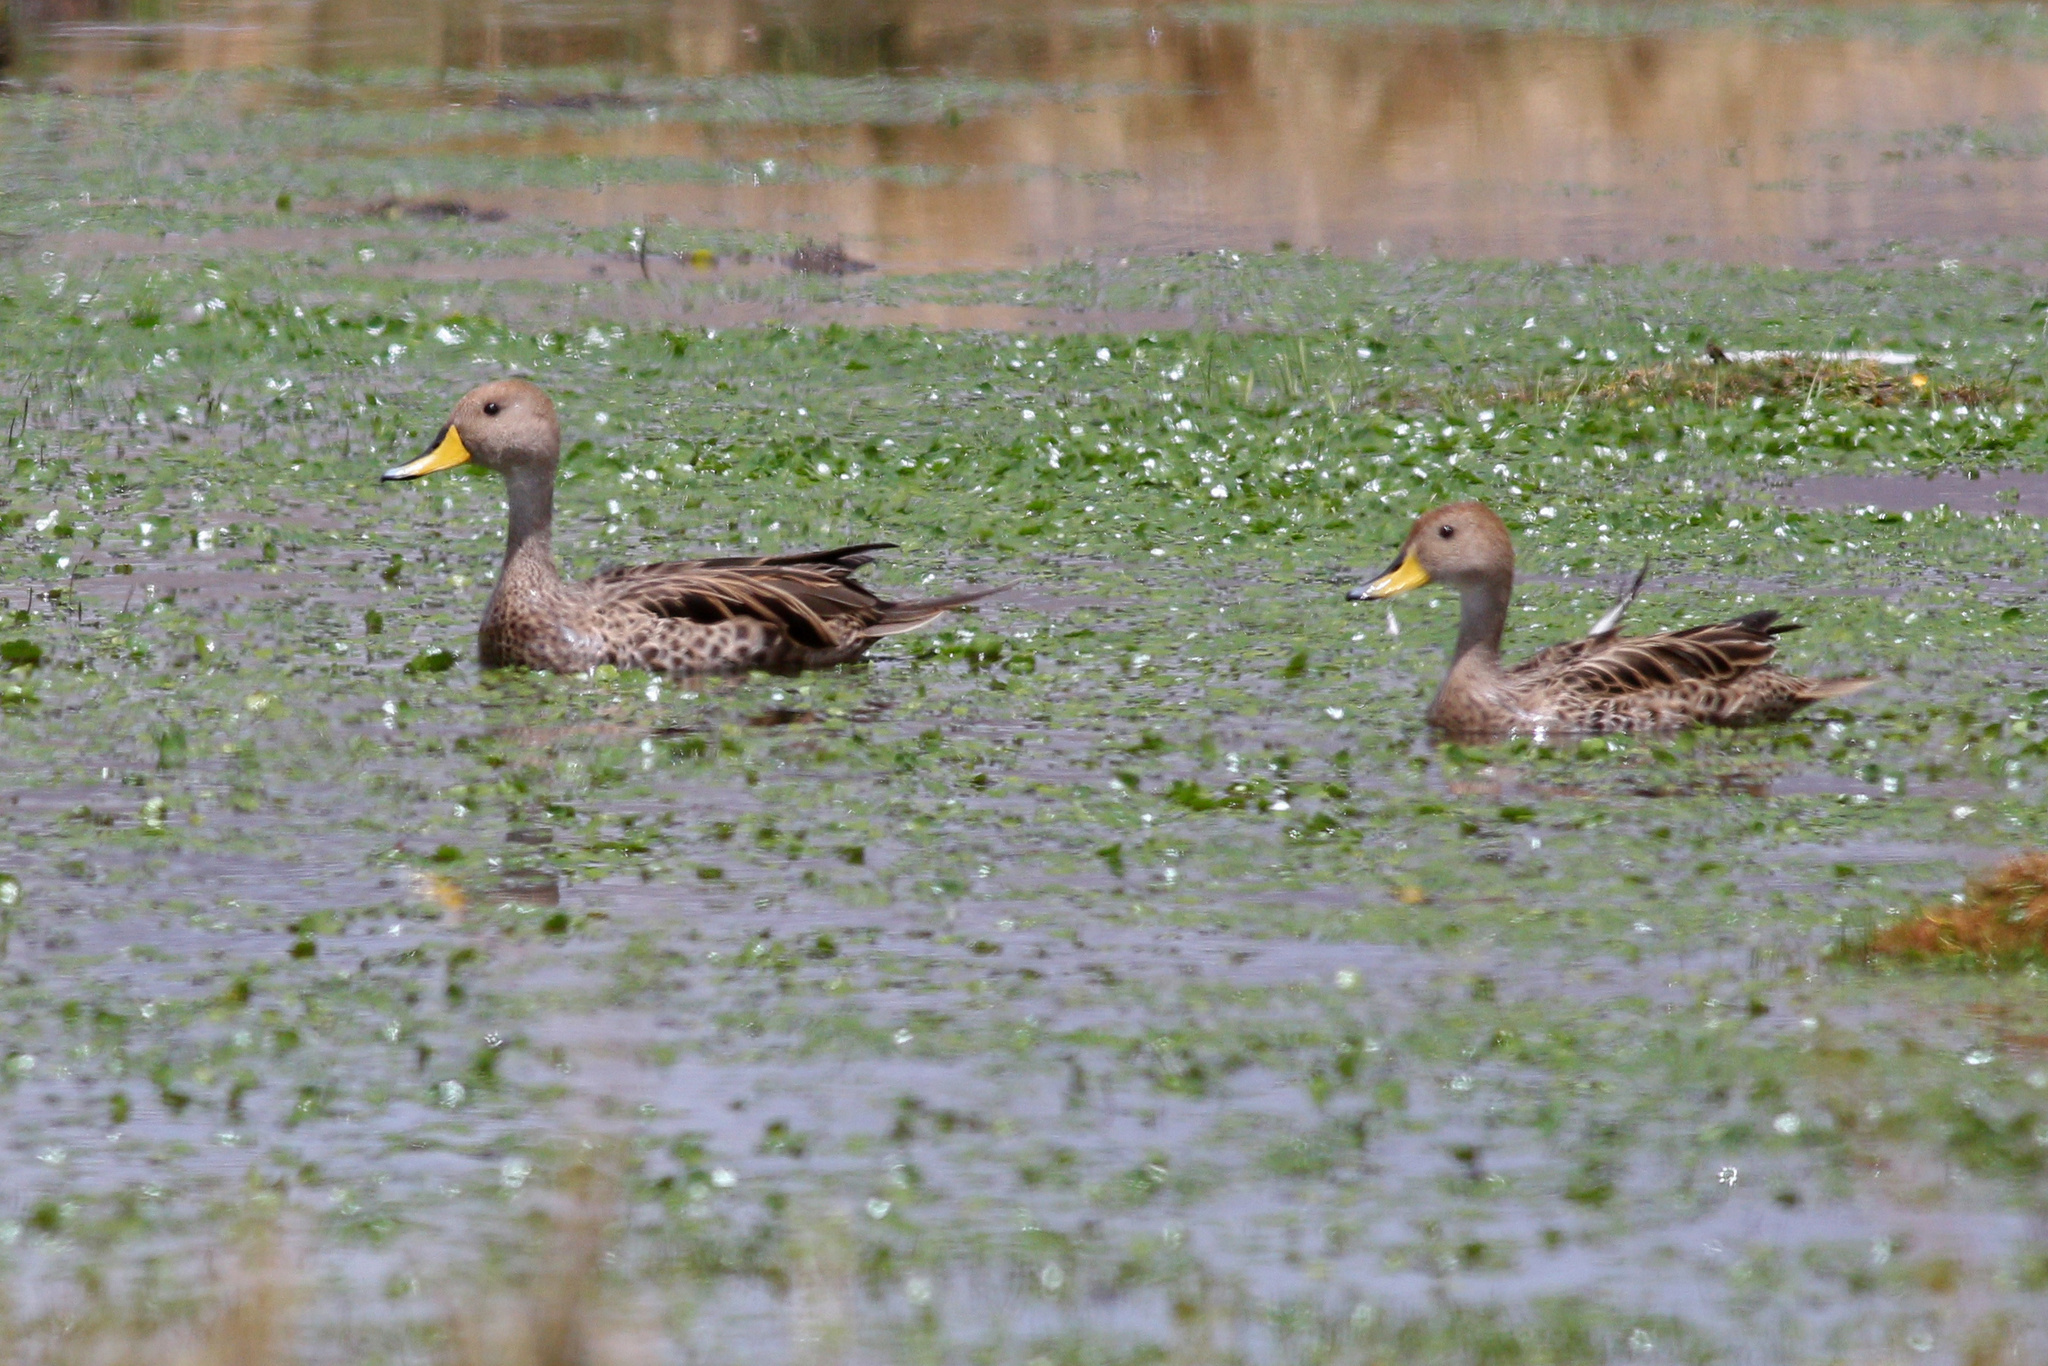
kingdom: Animalia
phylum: Chordata
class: Aves
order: Anseriformes
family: Anatidae
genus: Anas
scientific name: Anas georgica
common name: Yellow-billed pintail
